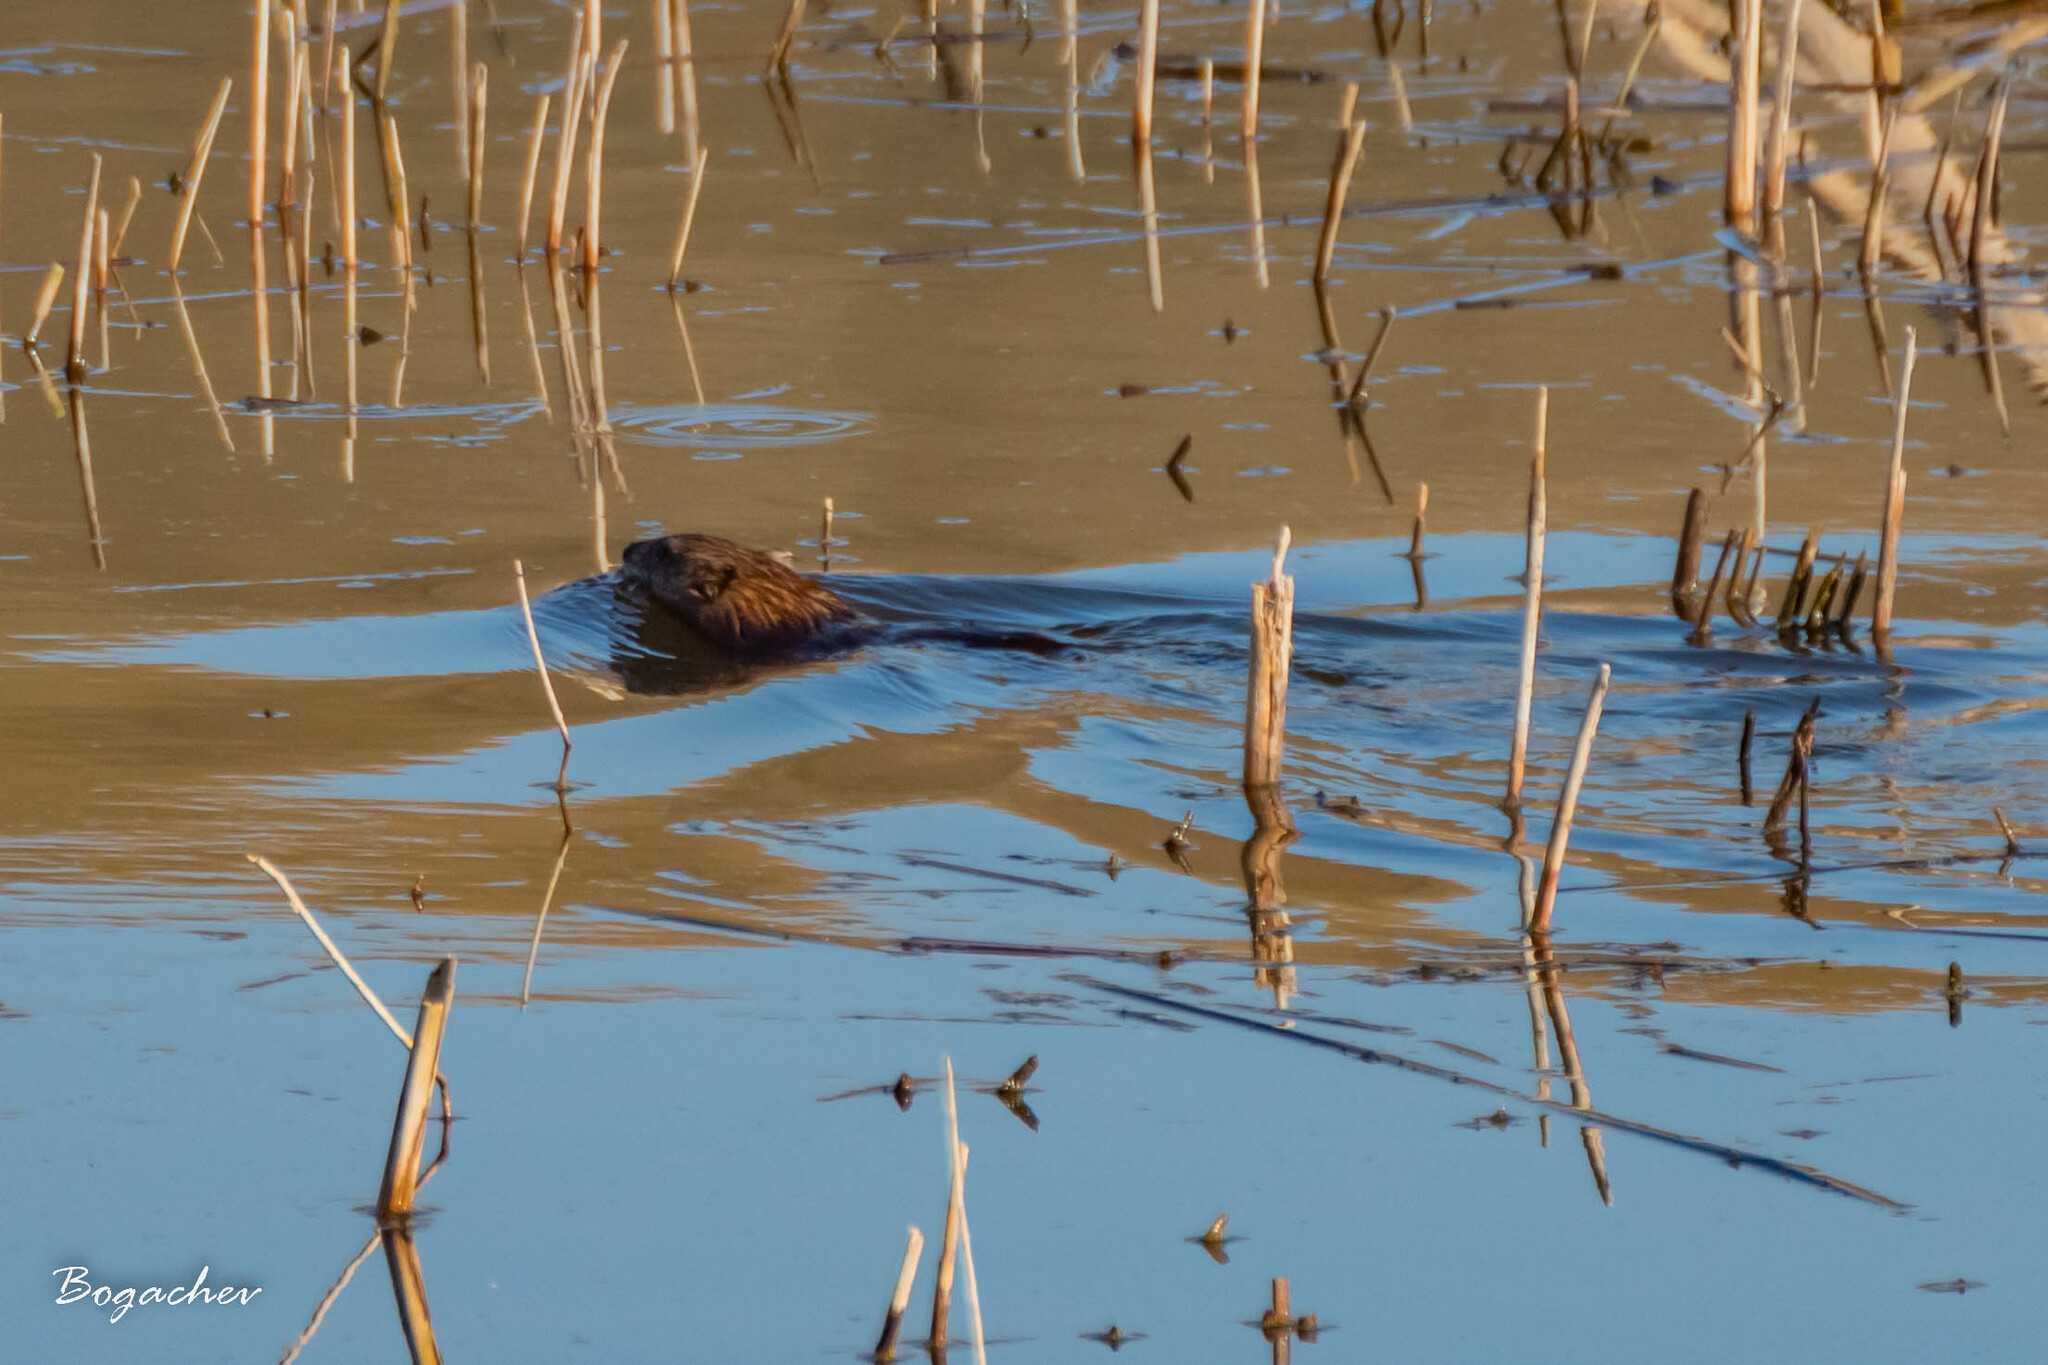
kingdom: Animalia
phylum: Chordata
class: Mammalia
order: Rodentia
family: Cricetidae
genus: Ondatra
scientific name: Ondatra zibethicus
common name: Muskrat
